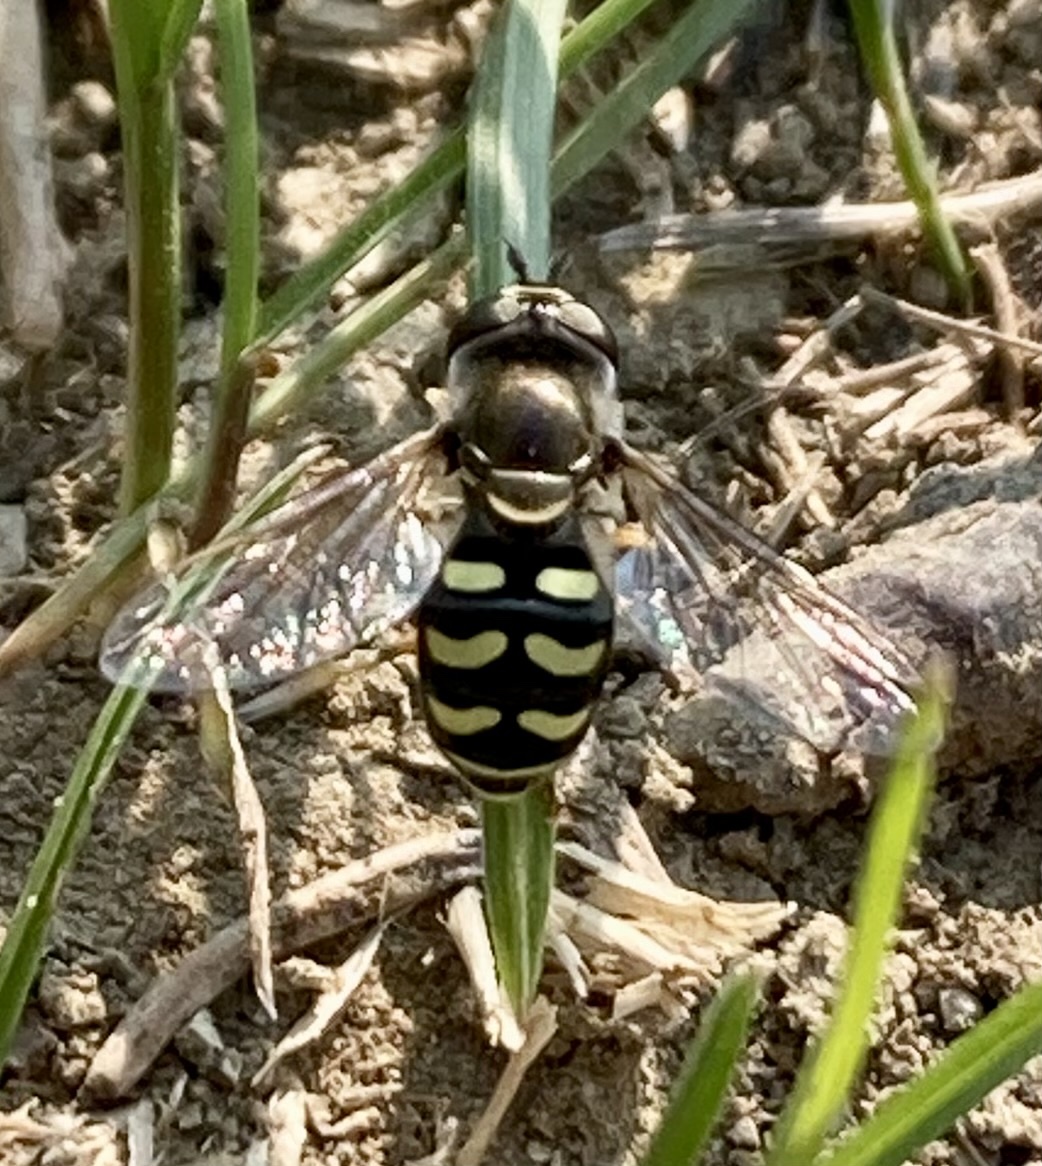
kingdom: Animalia
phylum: Arthropoda
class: Insecta
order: Diptera
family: Syrphidae
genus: Eupeodes
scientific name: Eupeodes volucris
